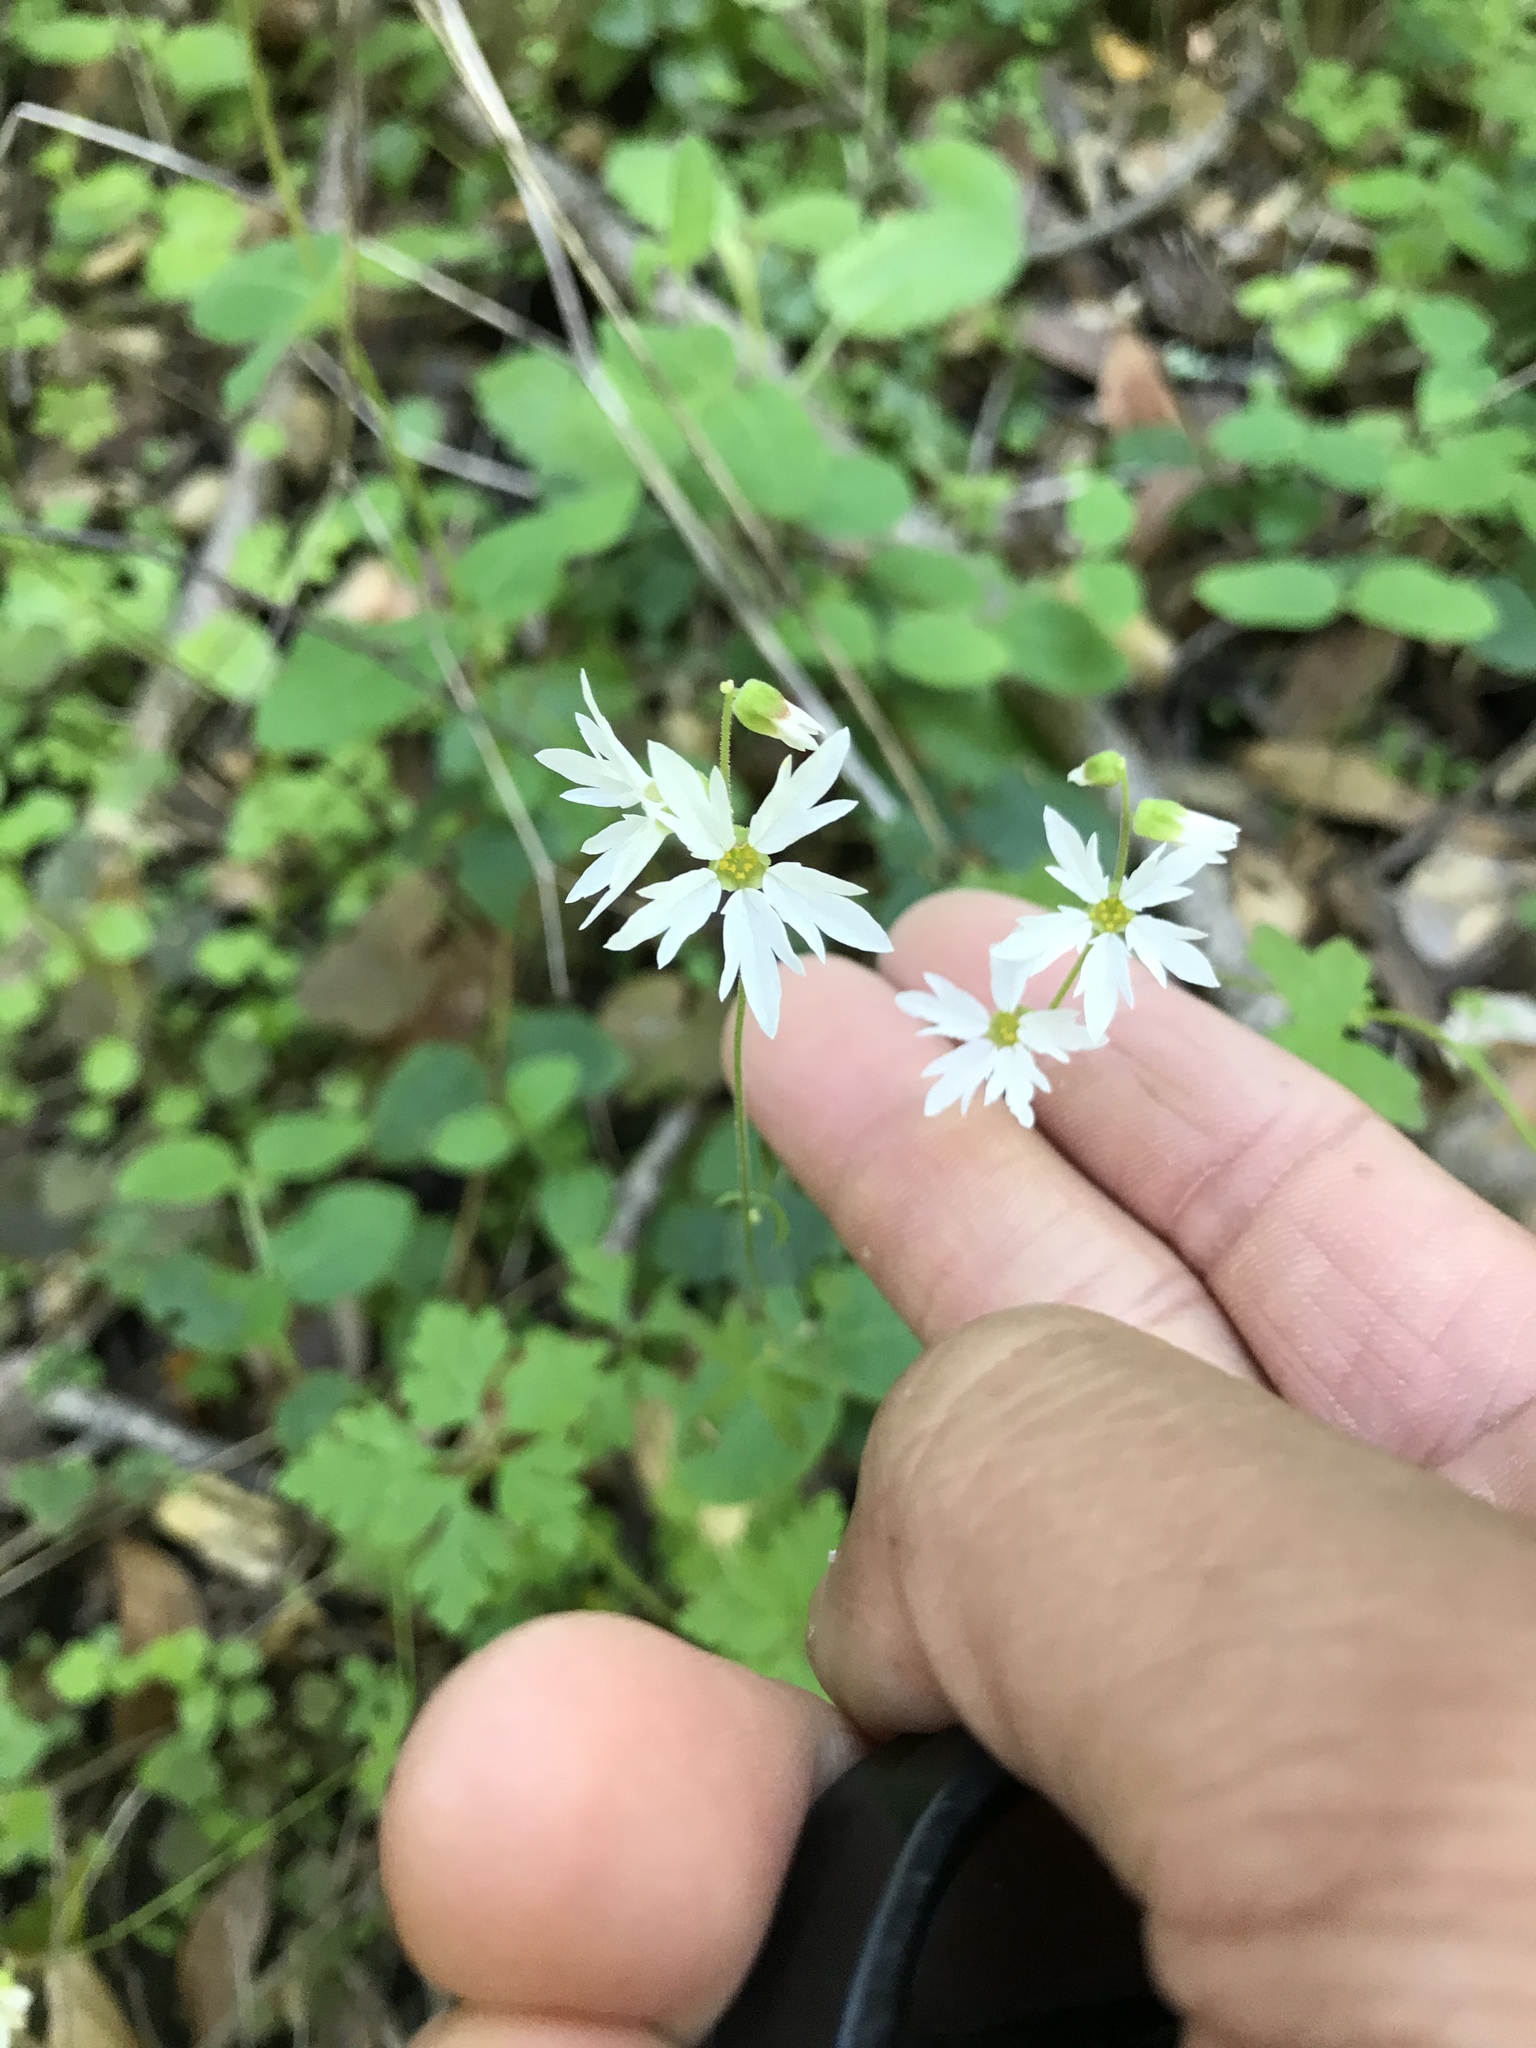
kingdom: Plantae
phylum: Tracheophyta
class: Magnoliopsida
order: Saxifragales
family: Saxifragaceae
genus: Lithophragma
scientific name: Lithophragma heterophyllum
